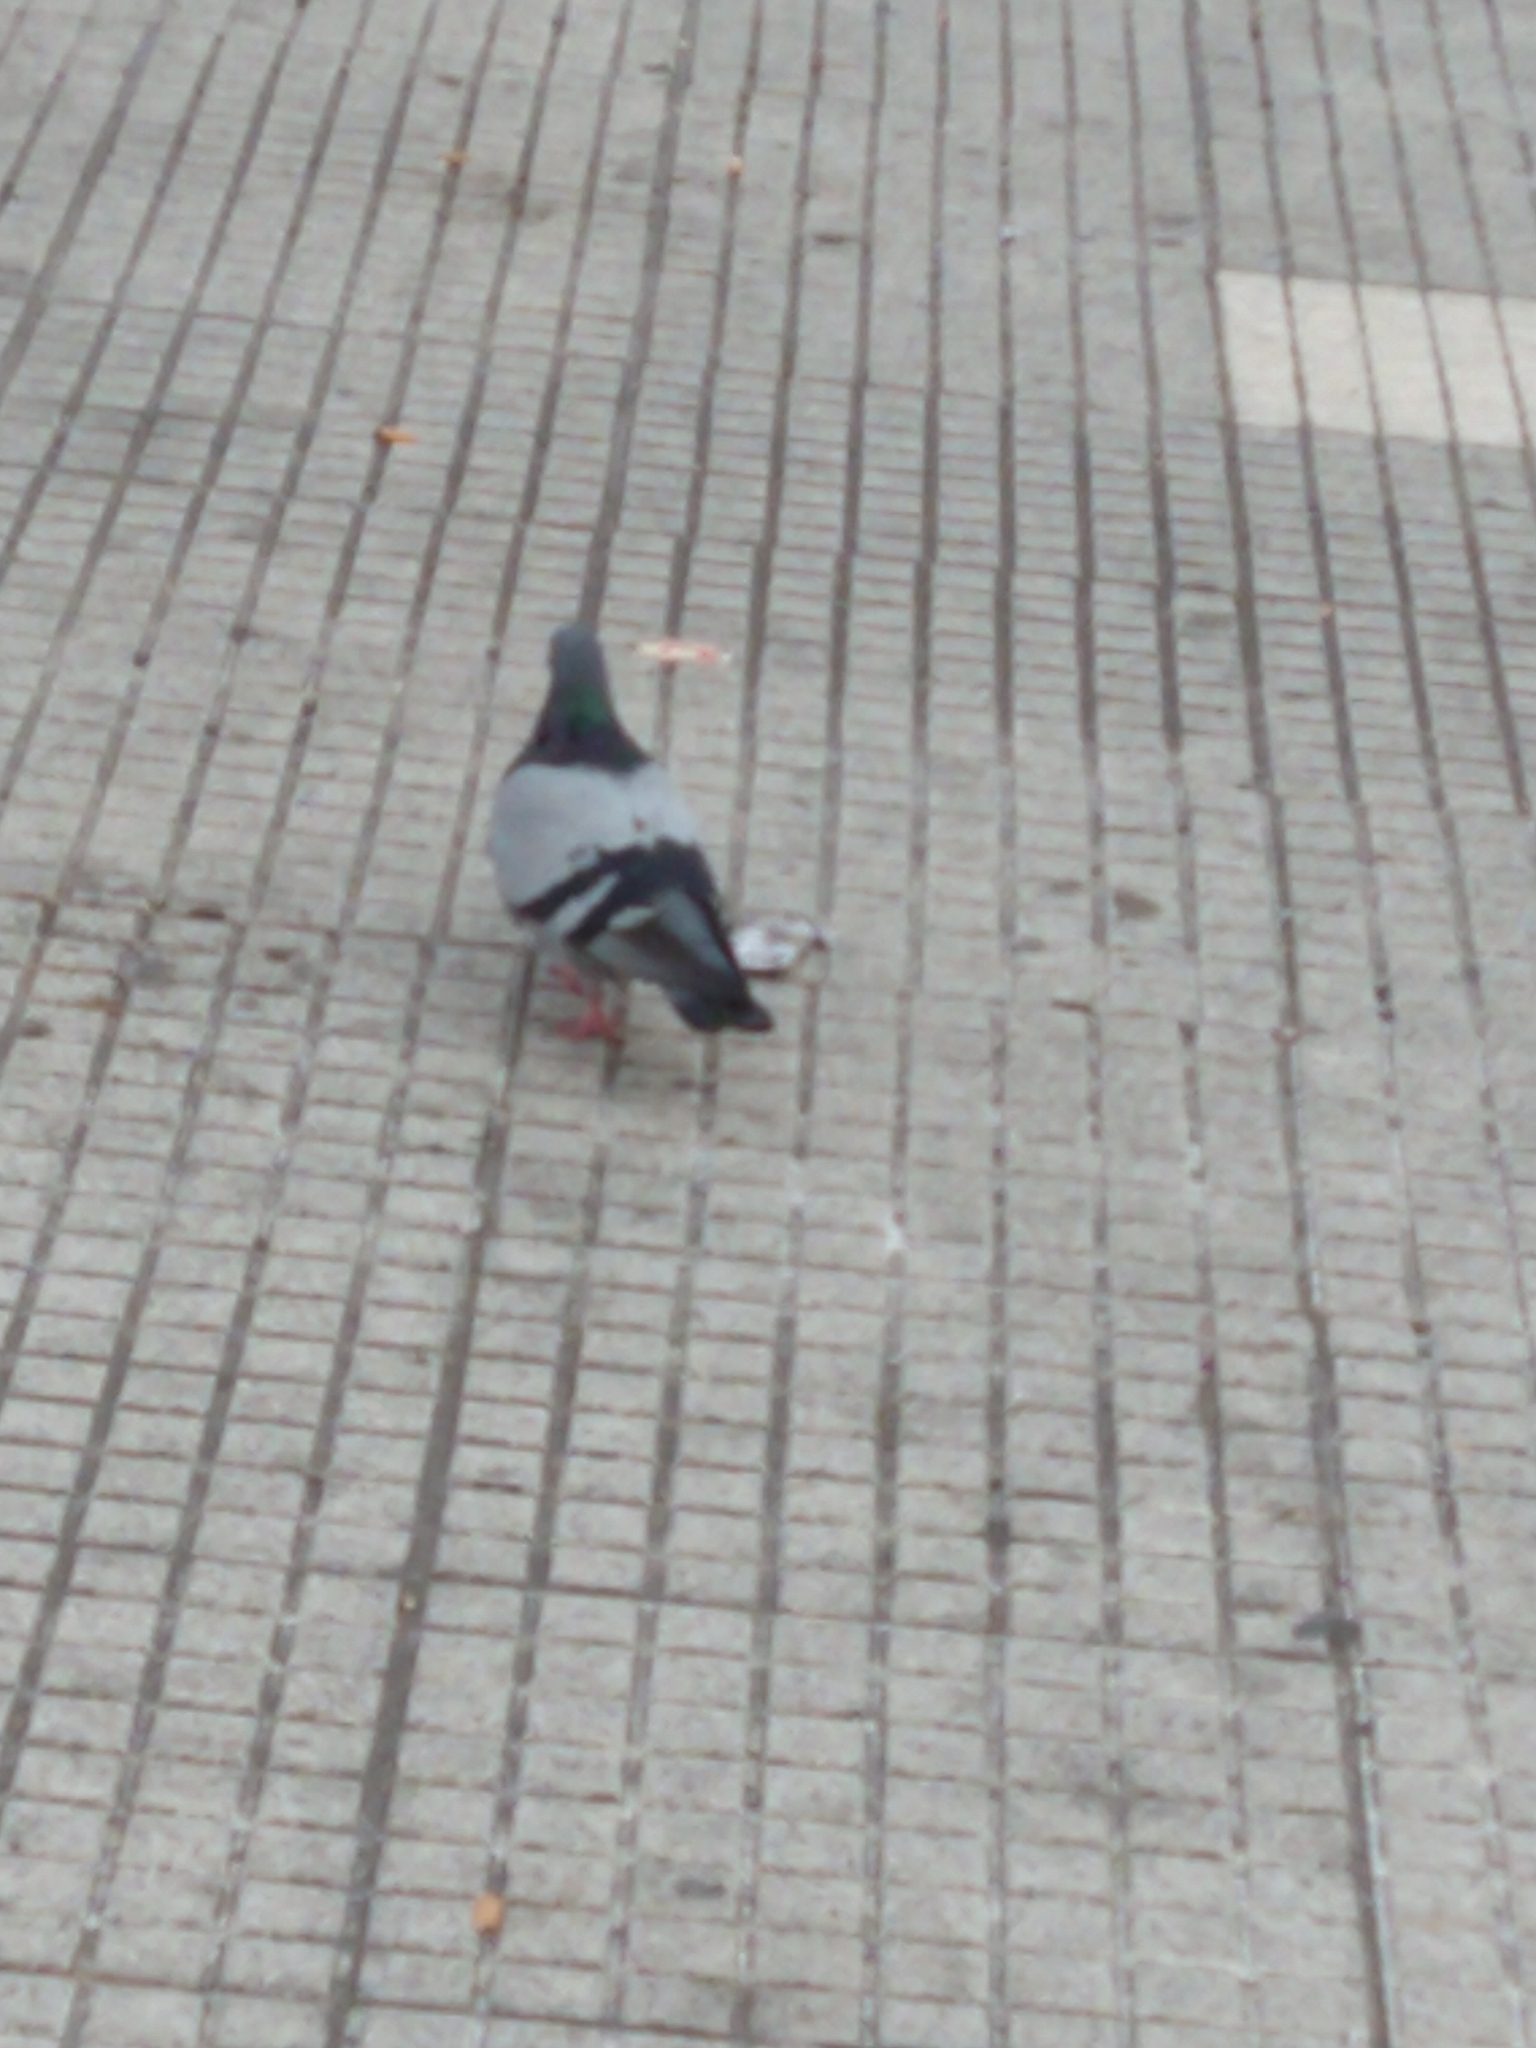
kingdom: Animalia
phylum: Chordata
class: Aves
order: Columbiformes
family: Columbidae
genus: Columba
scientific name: Columba livia
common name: Rock pigeon
